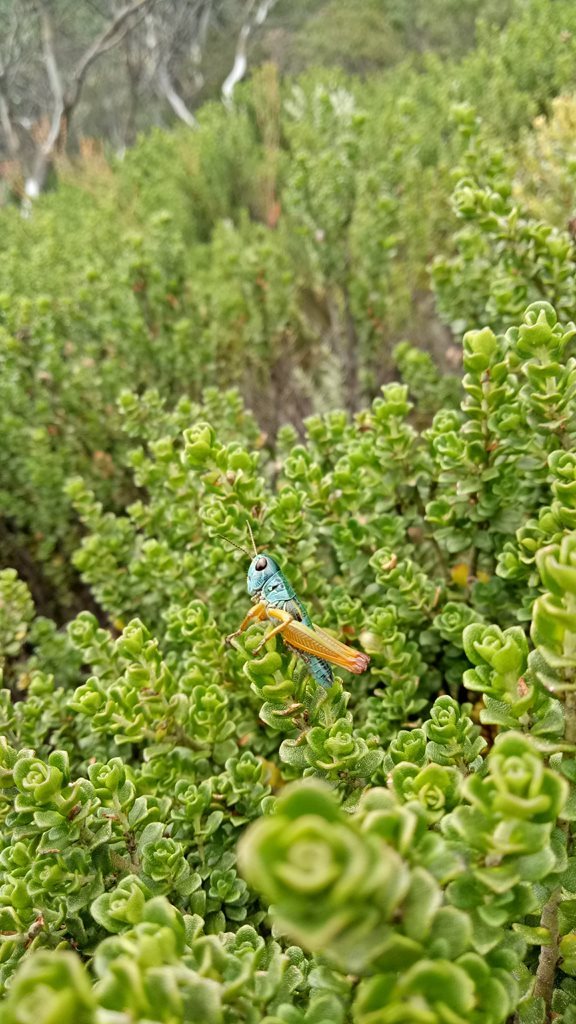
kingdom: Animalia
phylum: Arthropoda
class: Insecta
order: Orthoptera
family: Acrididae
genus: Kosciuscola
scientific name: Kosciuscola tristis
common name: Chameleon grasshopper
